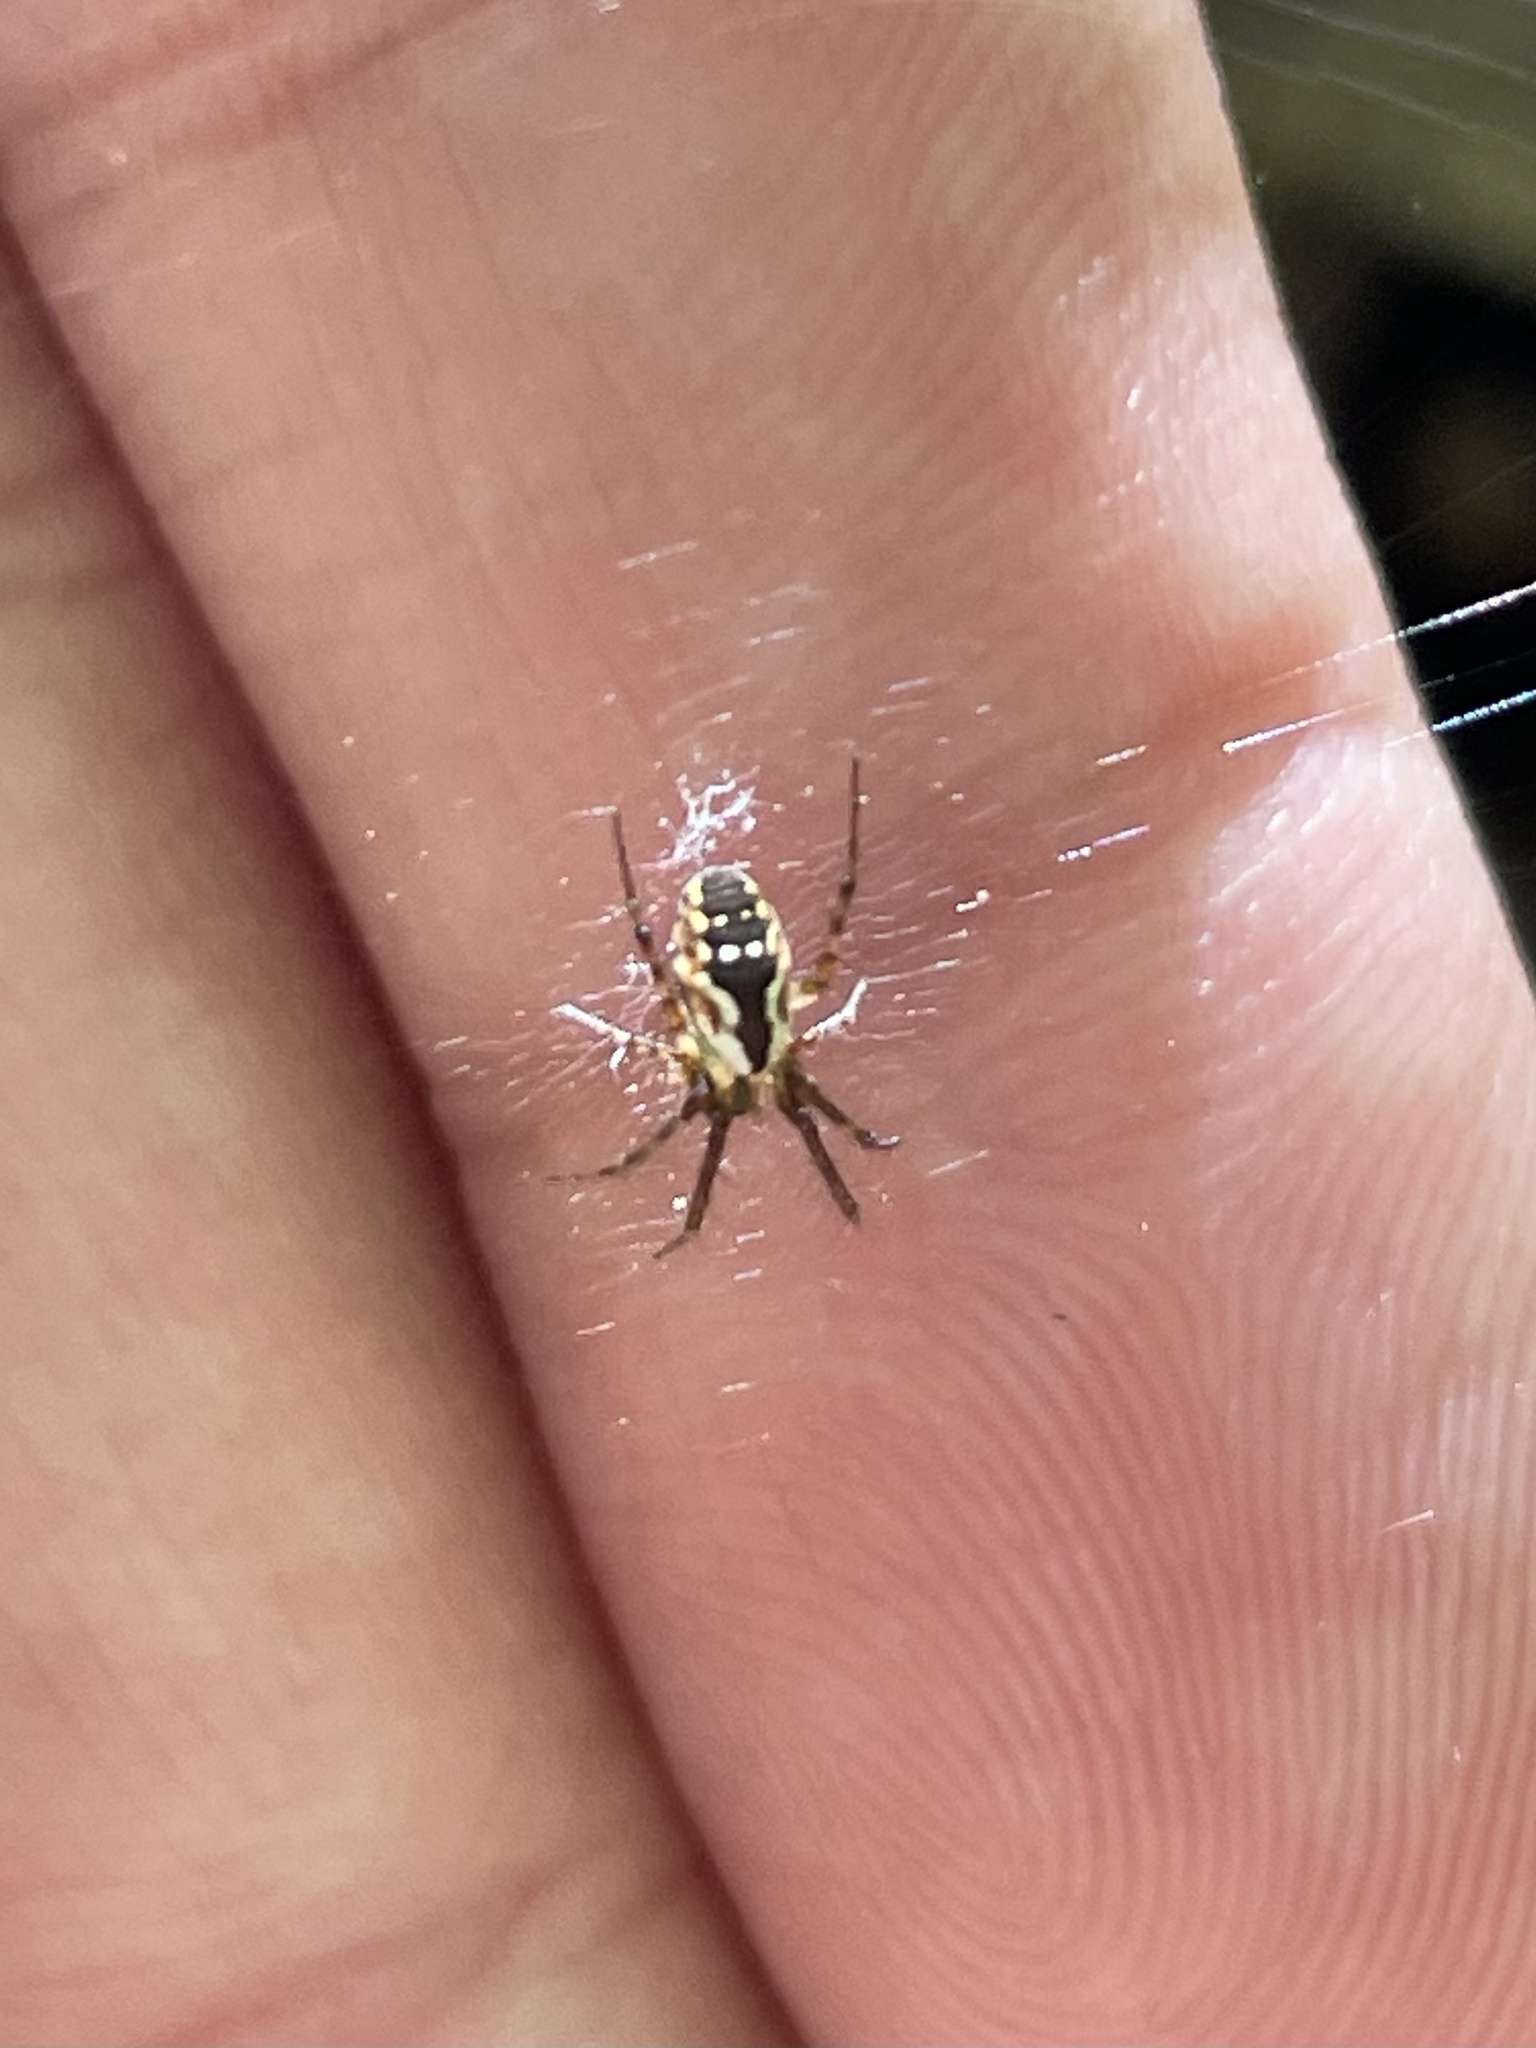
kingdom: Animalia
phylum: Arthropoda
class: Arachnida
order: Araneae
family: Araneidae
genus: Mangora
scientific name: Mangora placida
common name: Tuft-legged orbweaver
